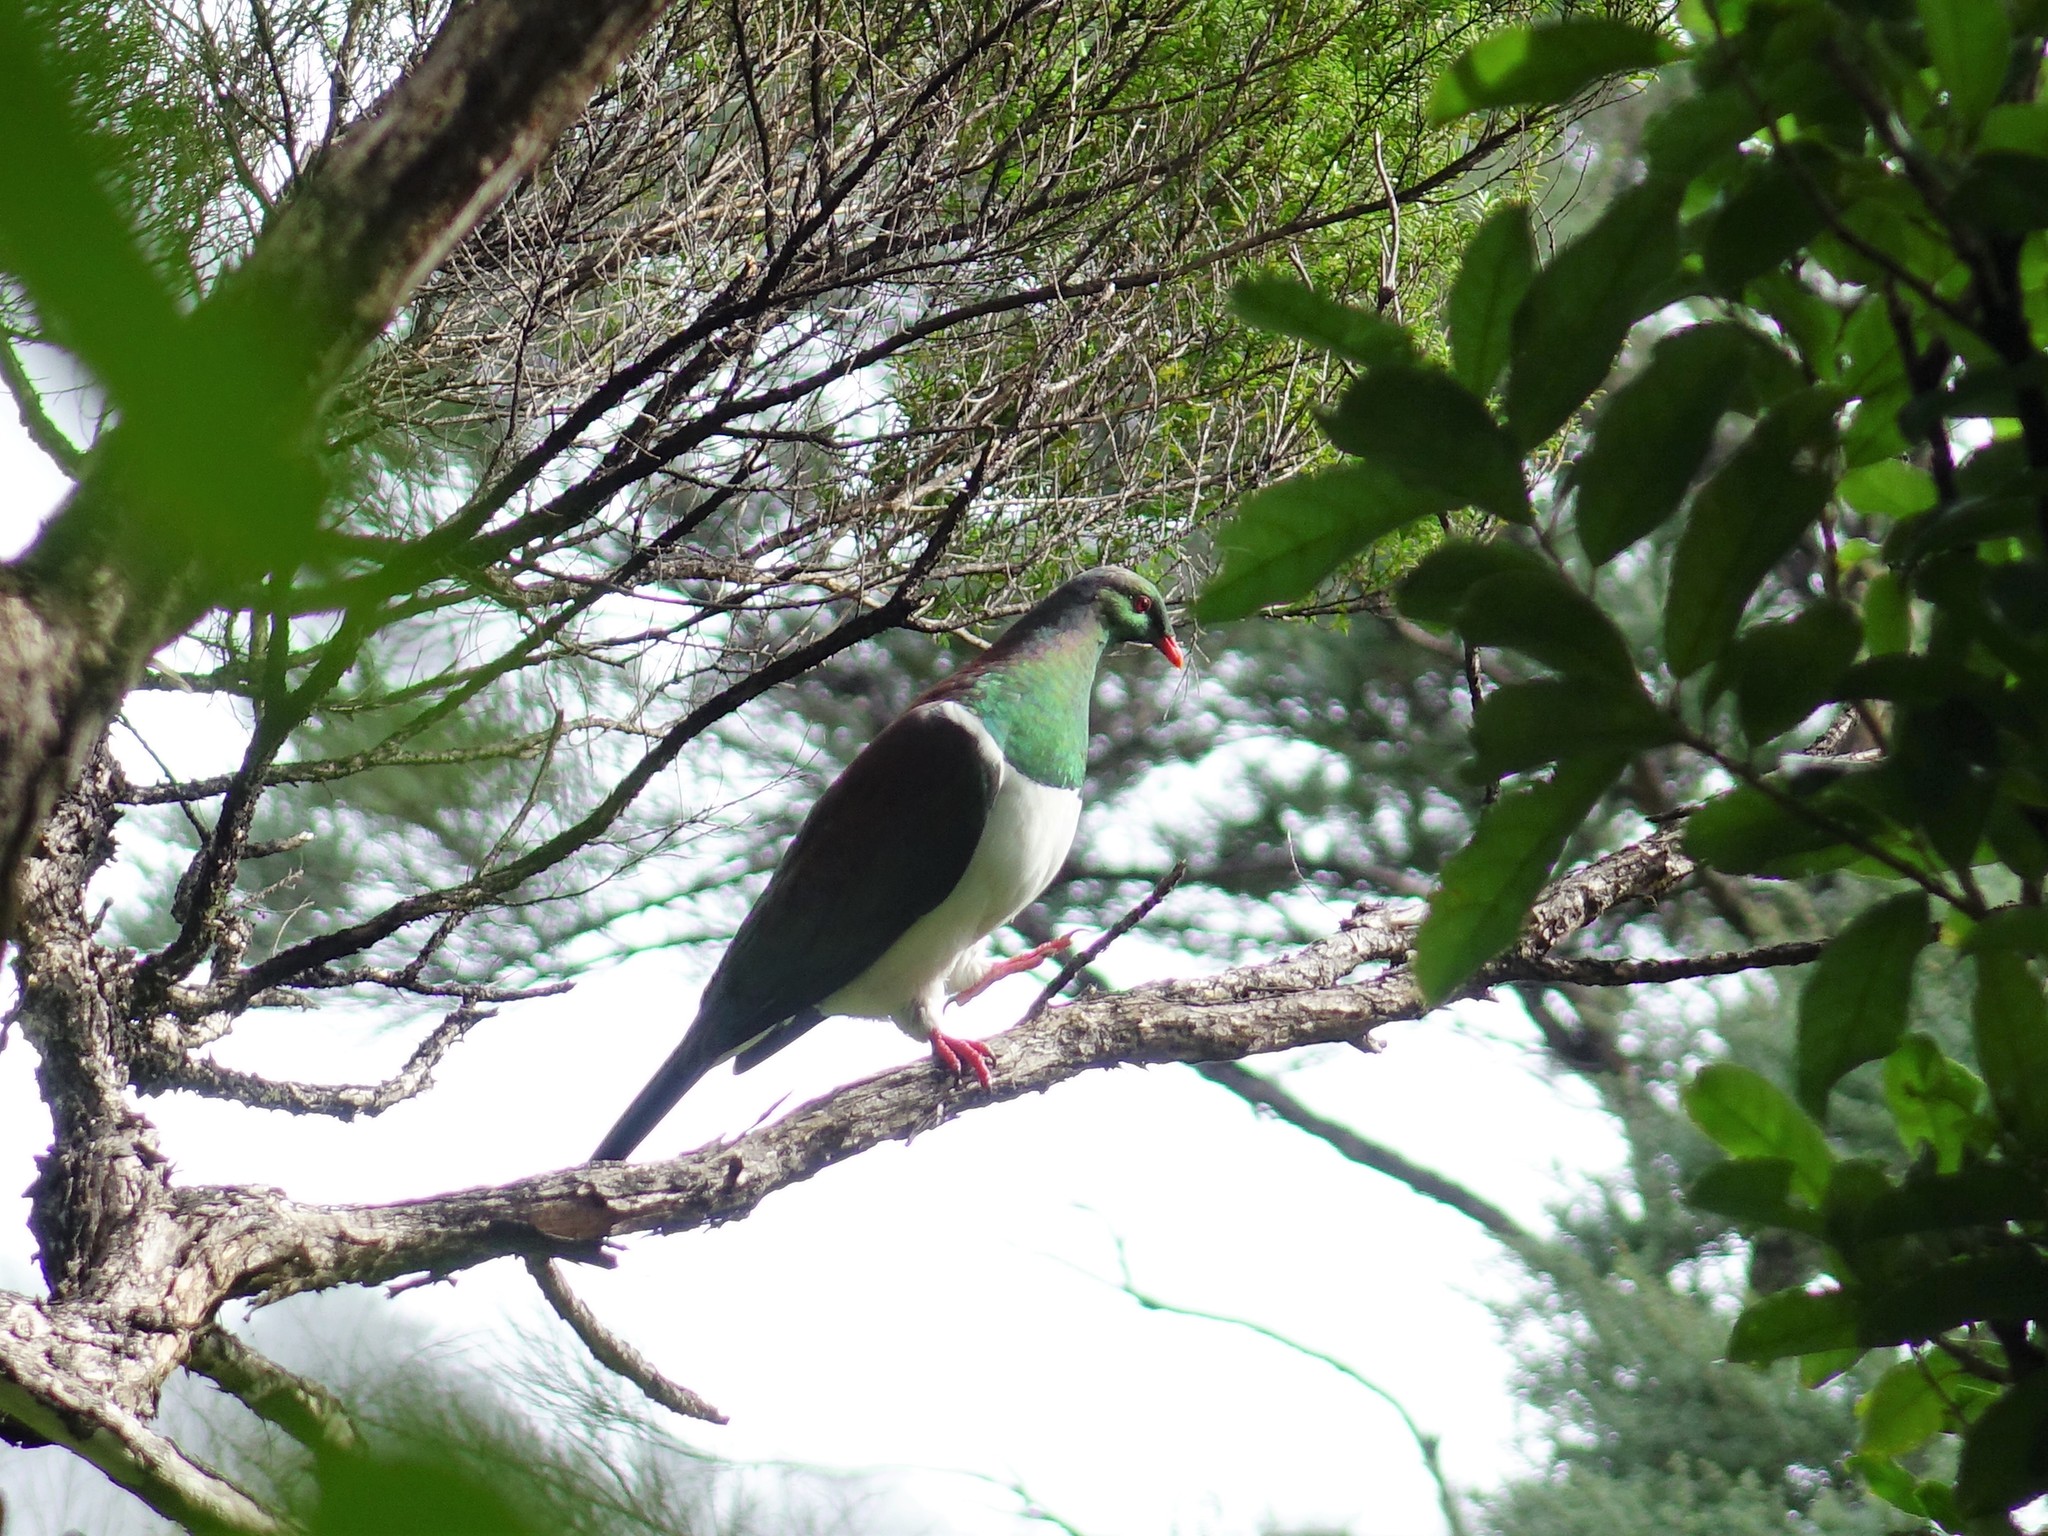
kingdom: Animalia
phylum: Chordata
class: Aves
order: Columbiformes
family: Columbidae
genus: Hemiphaga
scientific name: Hemiphaga novaeseelandiae
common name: New zealand pigeon
